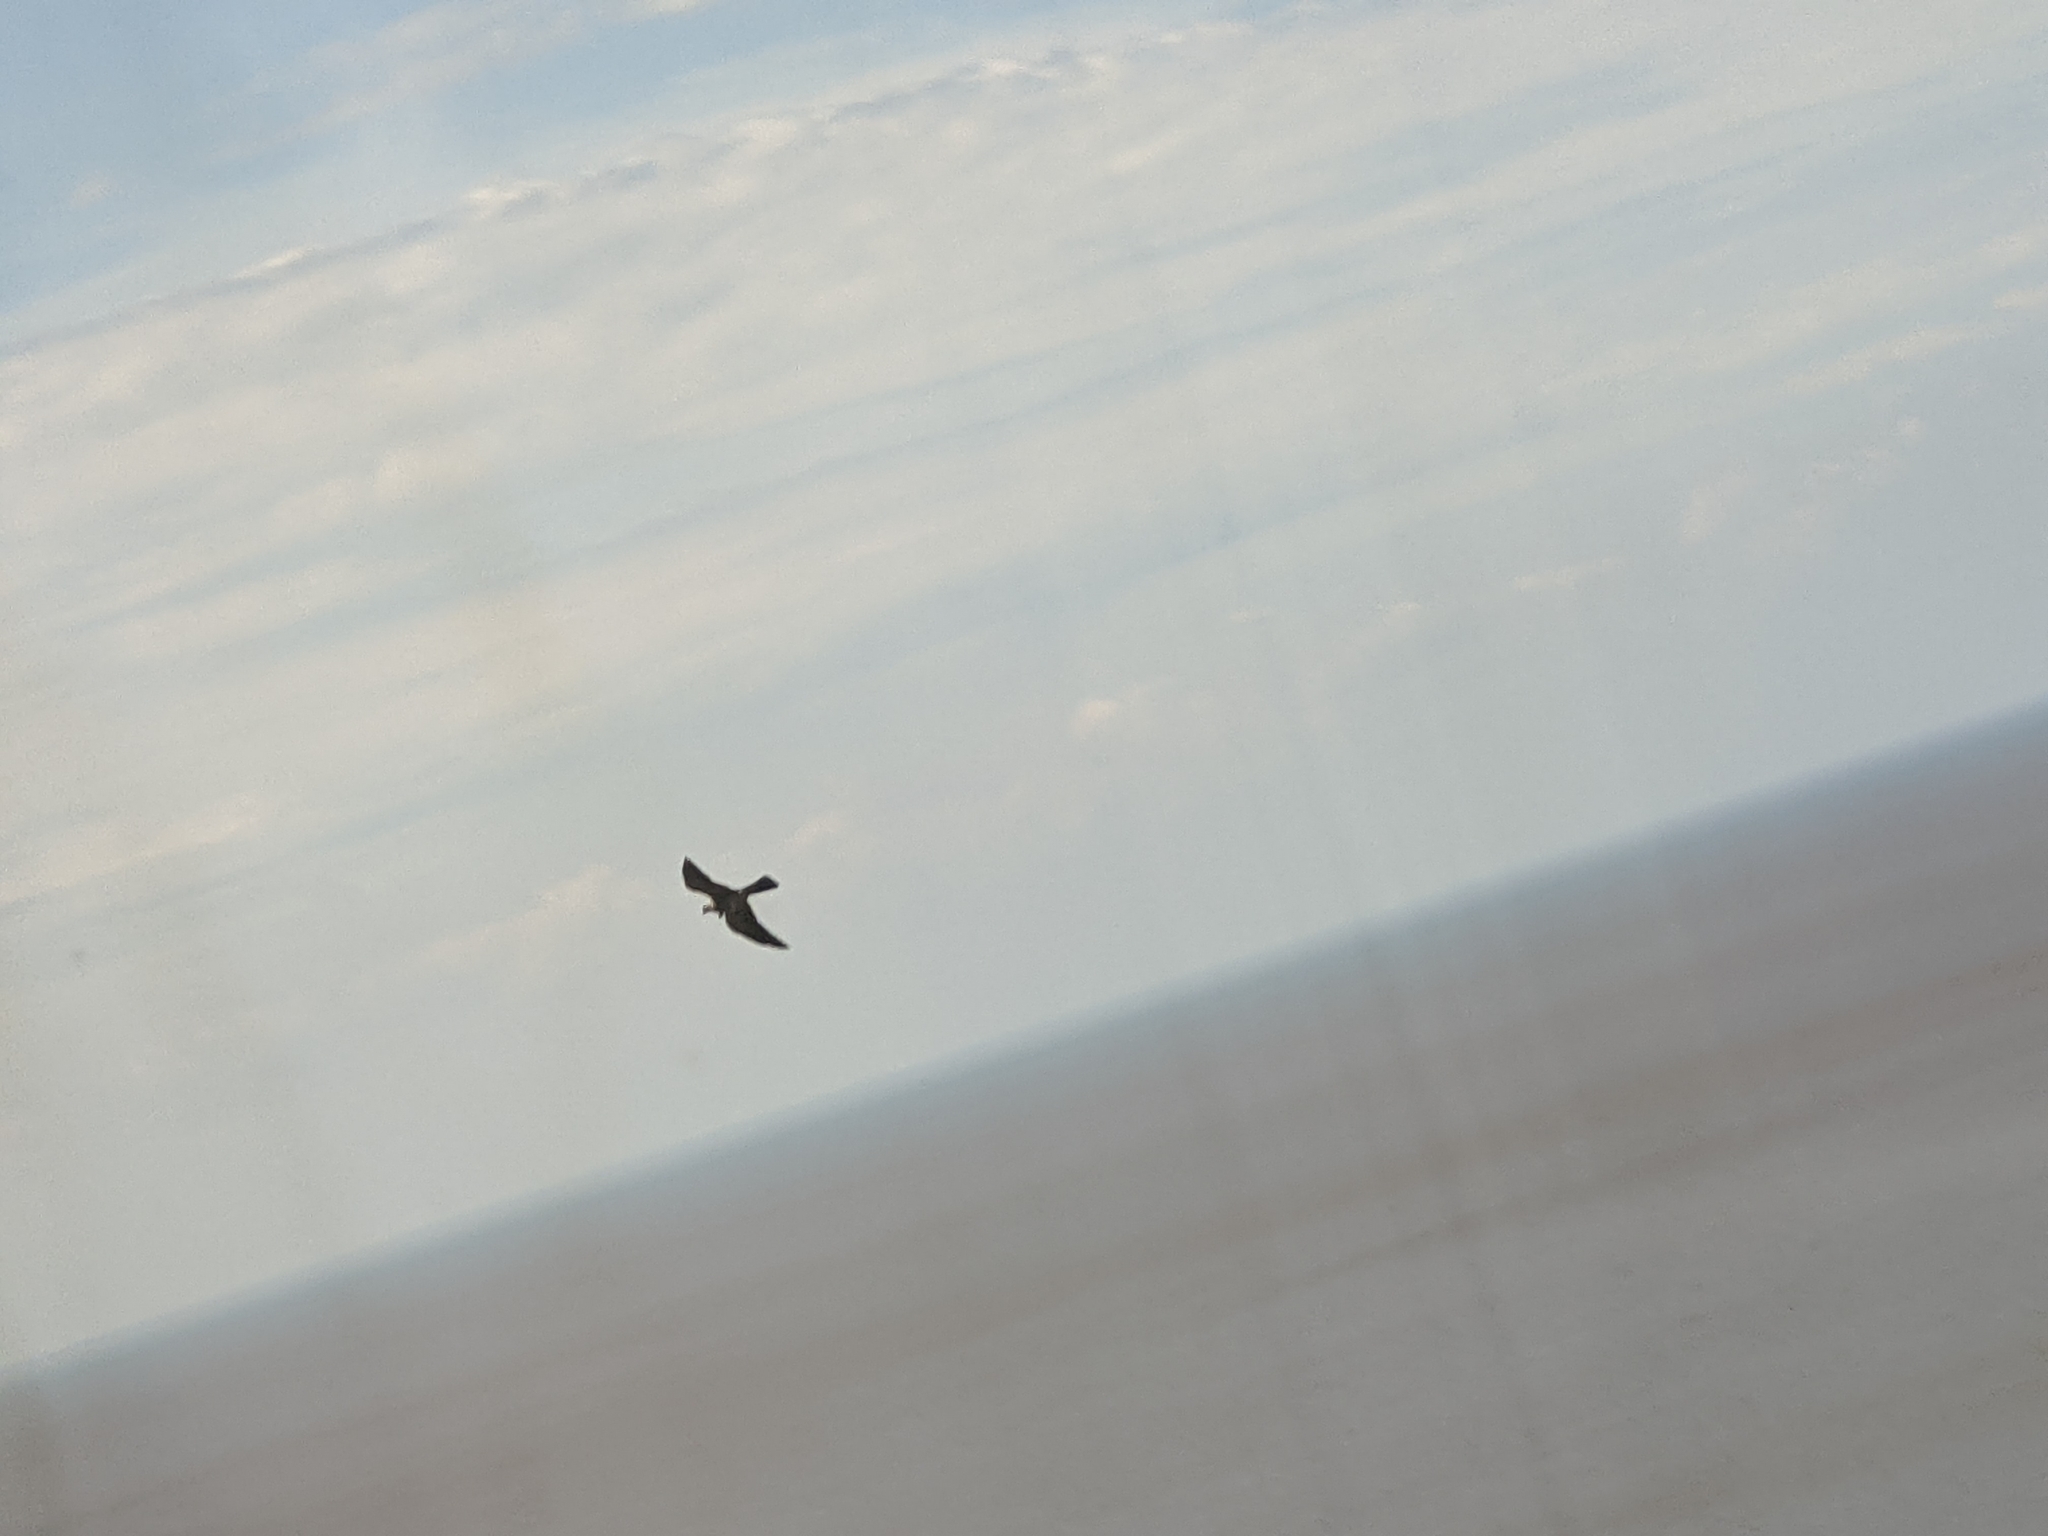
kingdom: Animalia
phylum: Chordata
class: Aves
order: Accipitriformes
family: Accipitridae
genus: Ictinia
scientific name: Ictinia mississippiensis
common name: Mississippi kite
